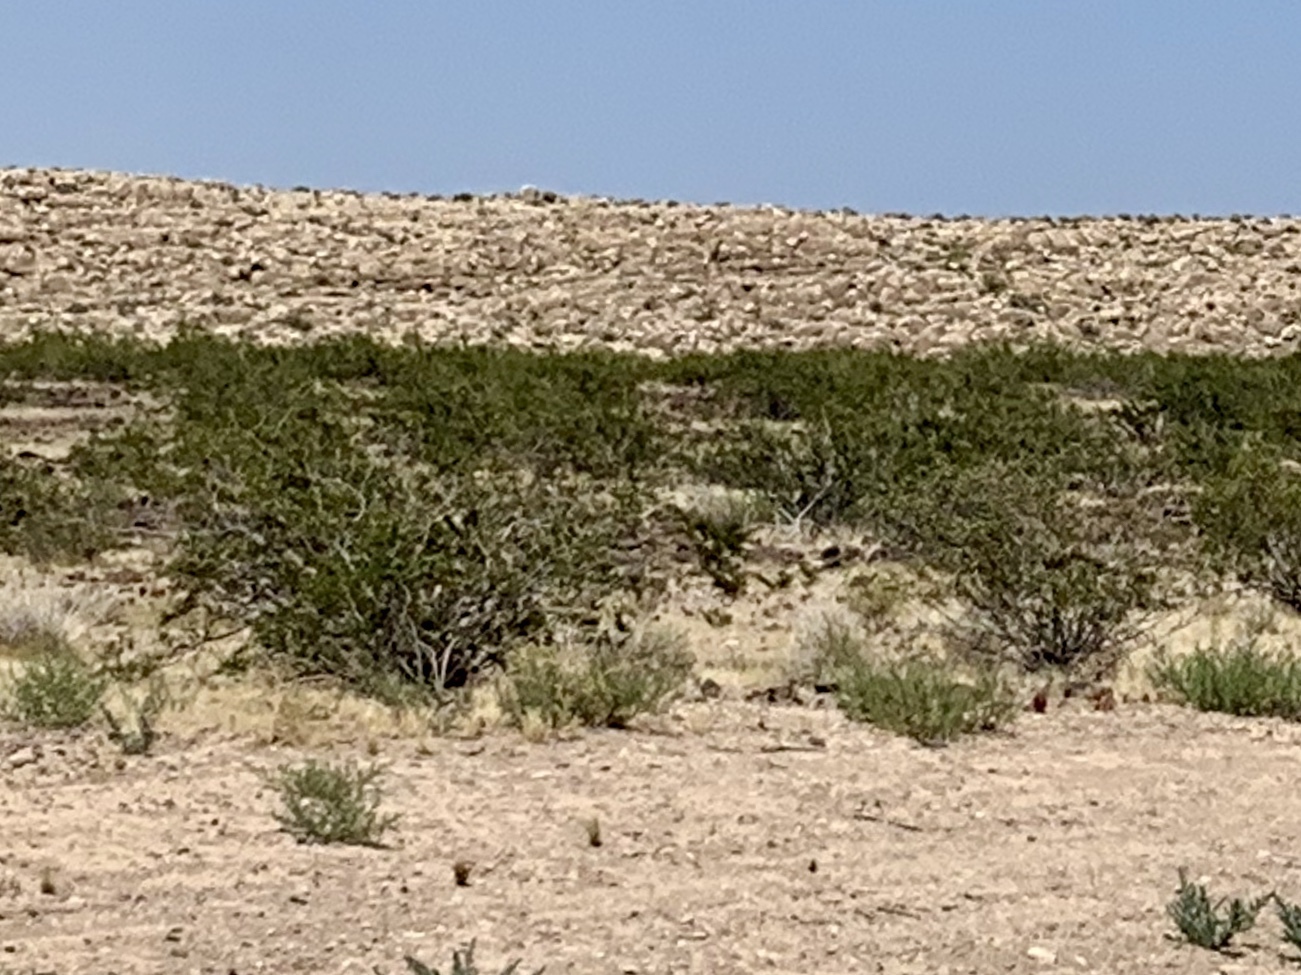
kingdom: Plantae
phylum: Tracheophyta
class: Magnoliopsida
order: Zygophyllales
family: Zygophyllaceae
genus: Larrea
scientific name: Larrea tridentata
